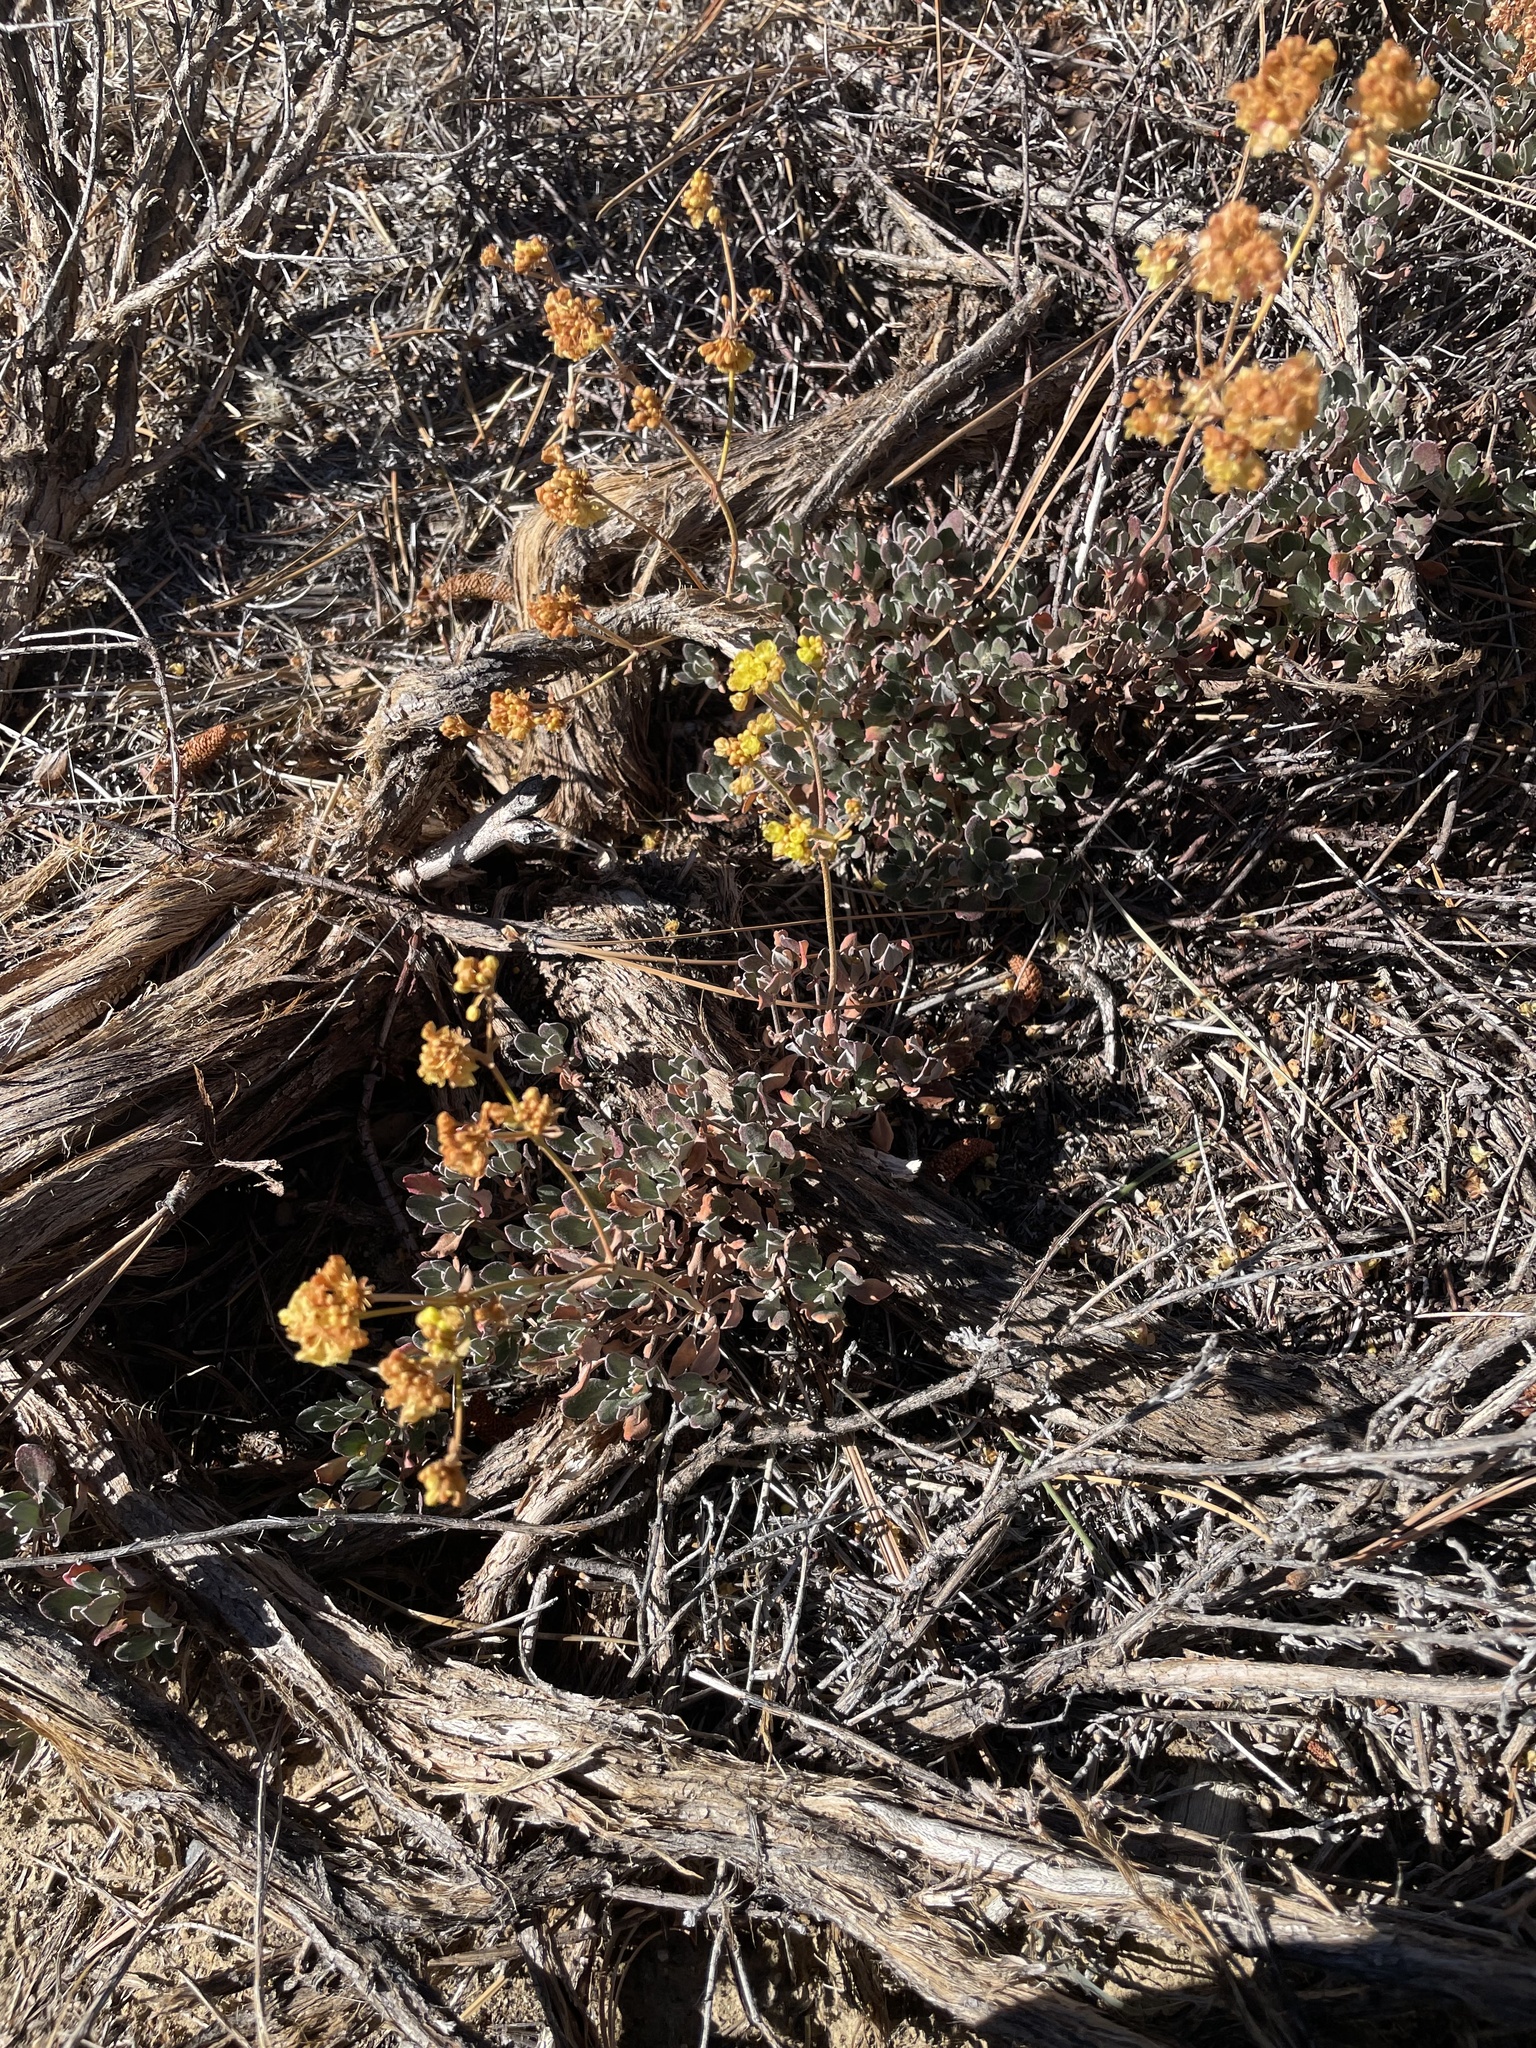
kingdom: Plantae
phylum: Tracheophyta
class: Magnoliopsida
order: Asterales
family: Asteraceae
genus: Eriophyllum
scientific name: Eriophyllum confertiflorum
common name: Golden-yarrow
